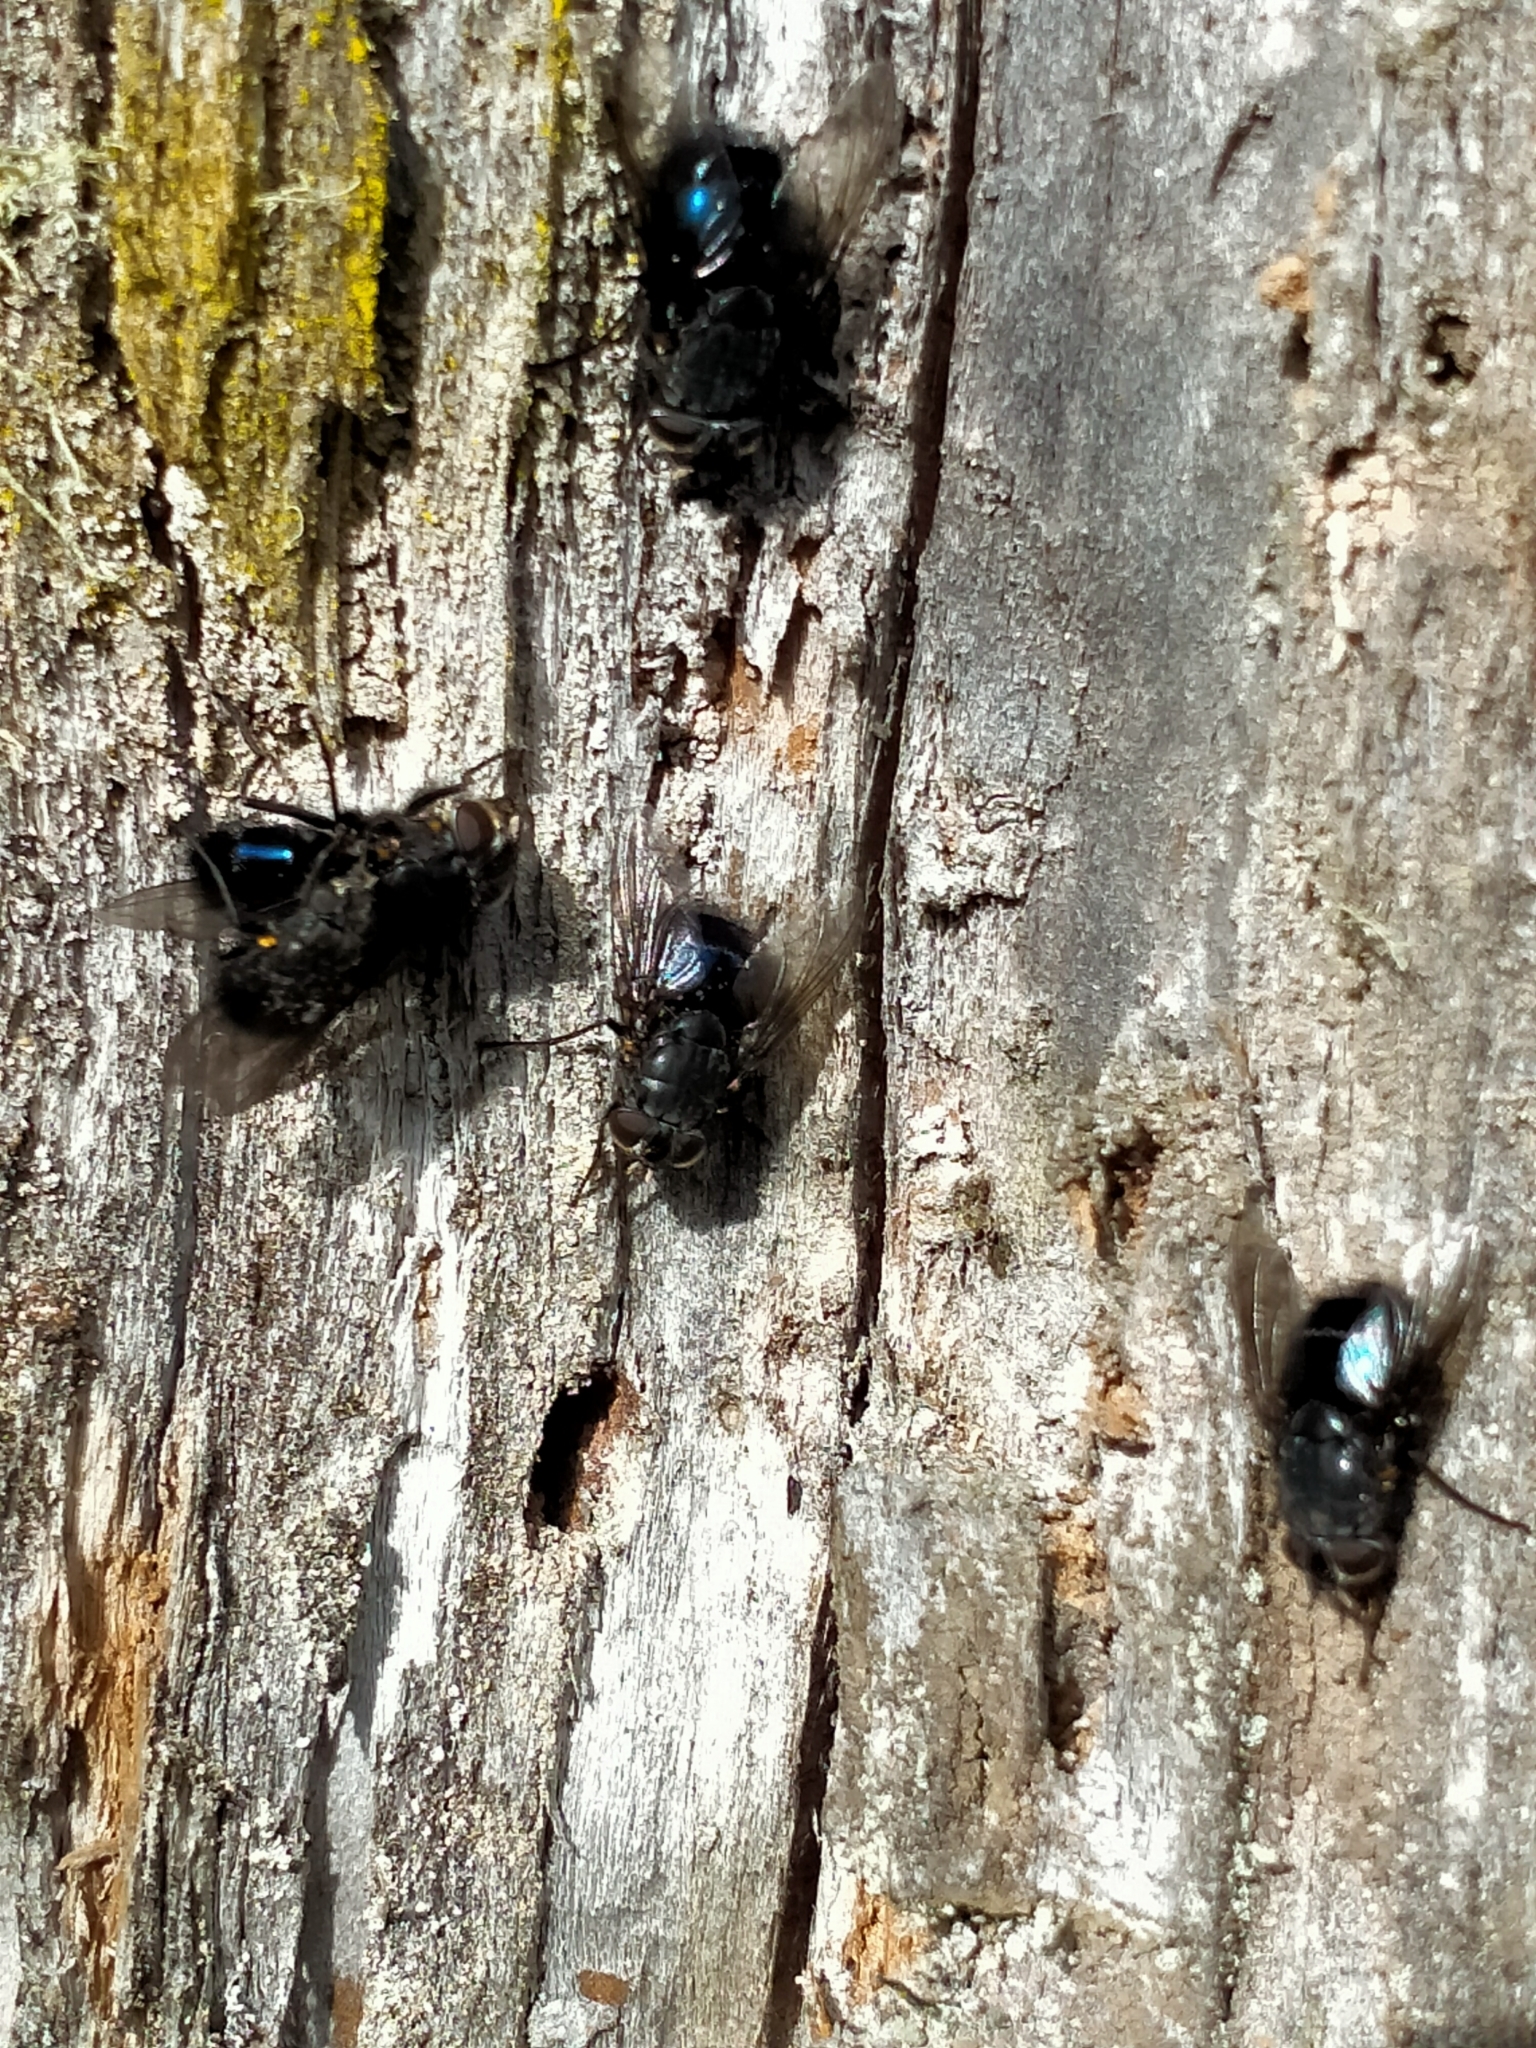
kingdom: Animalia
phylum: Arthropoda
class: Insecta
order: Diptera
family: Calliphoridae
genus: Calliphora
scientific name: Calliphora quadrimaculata
